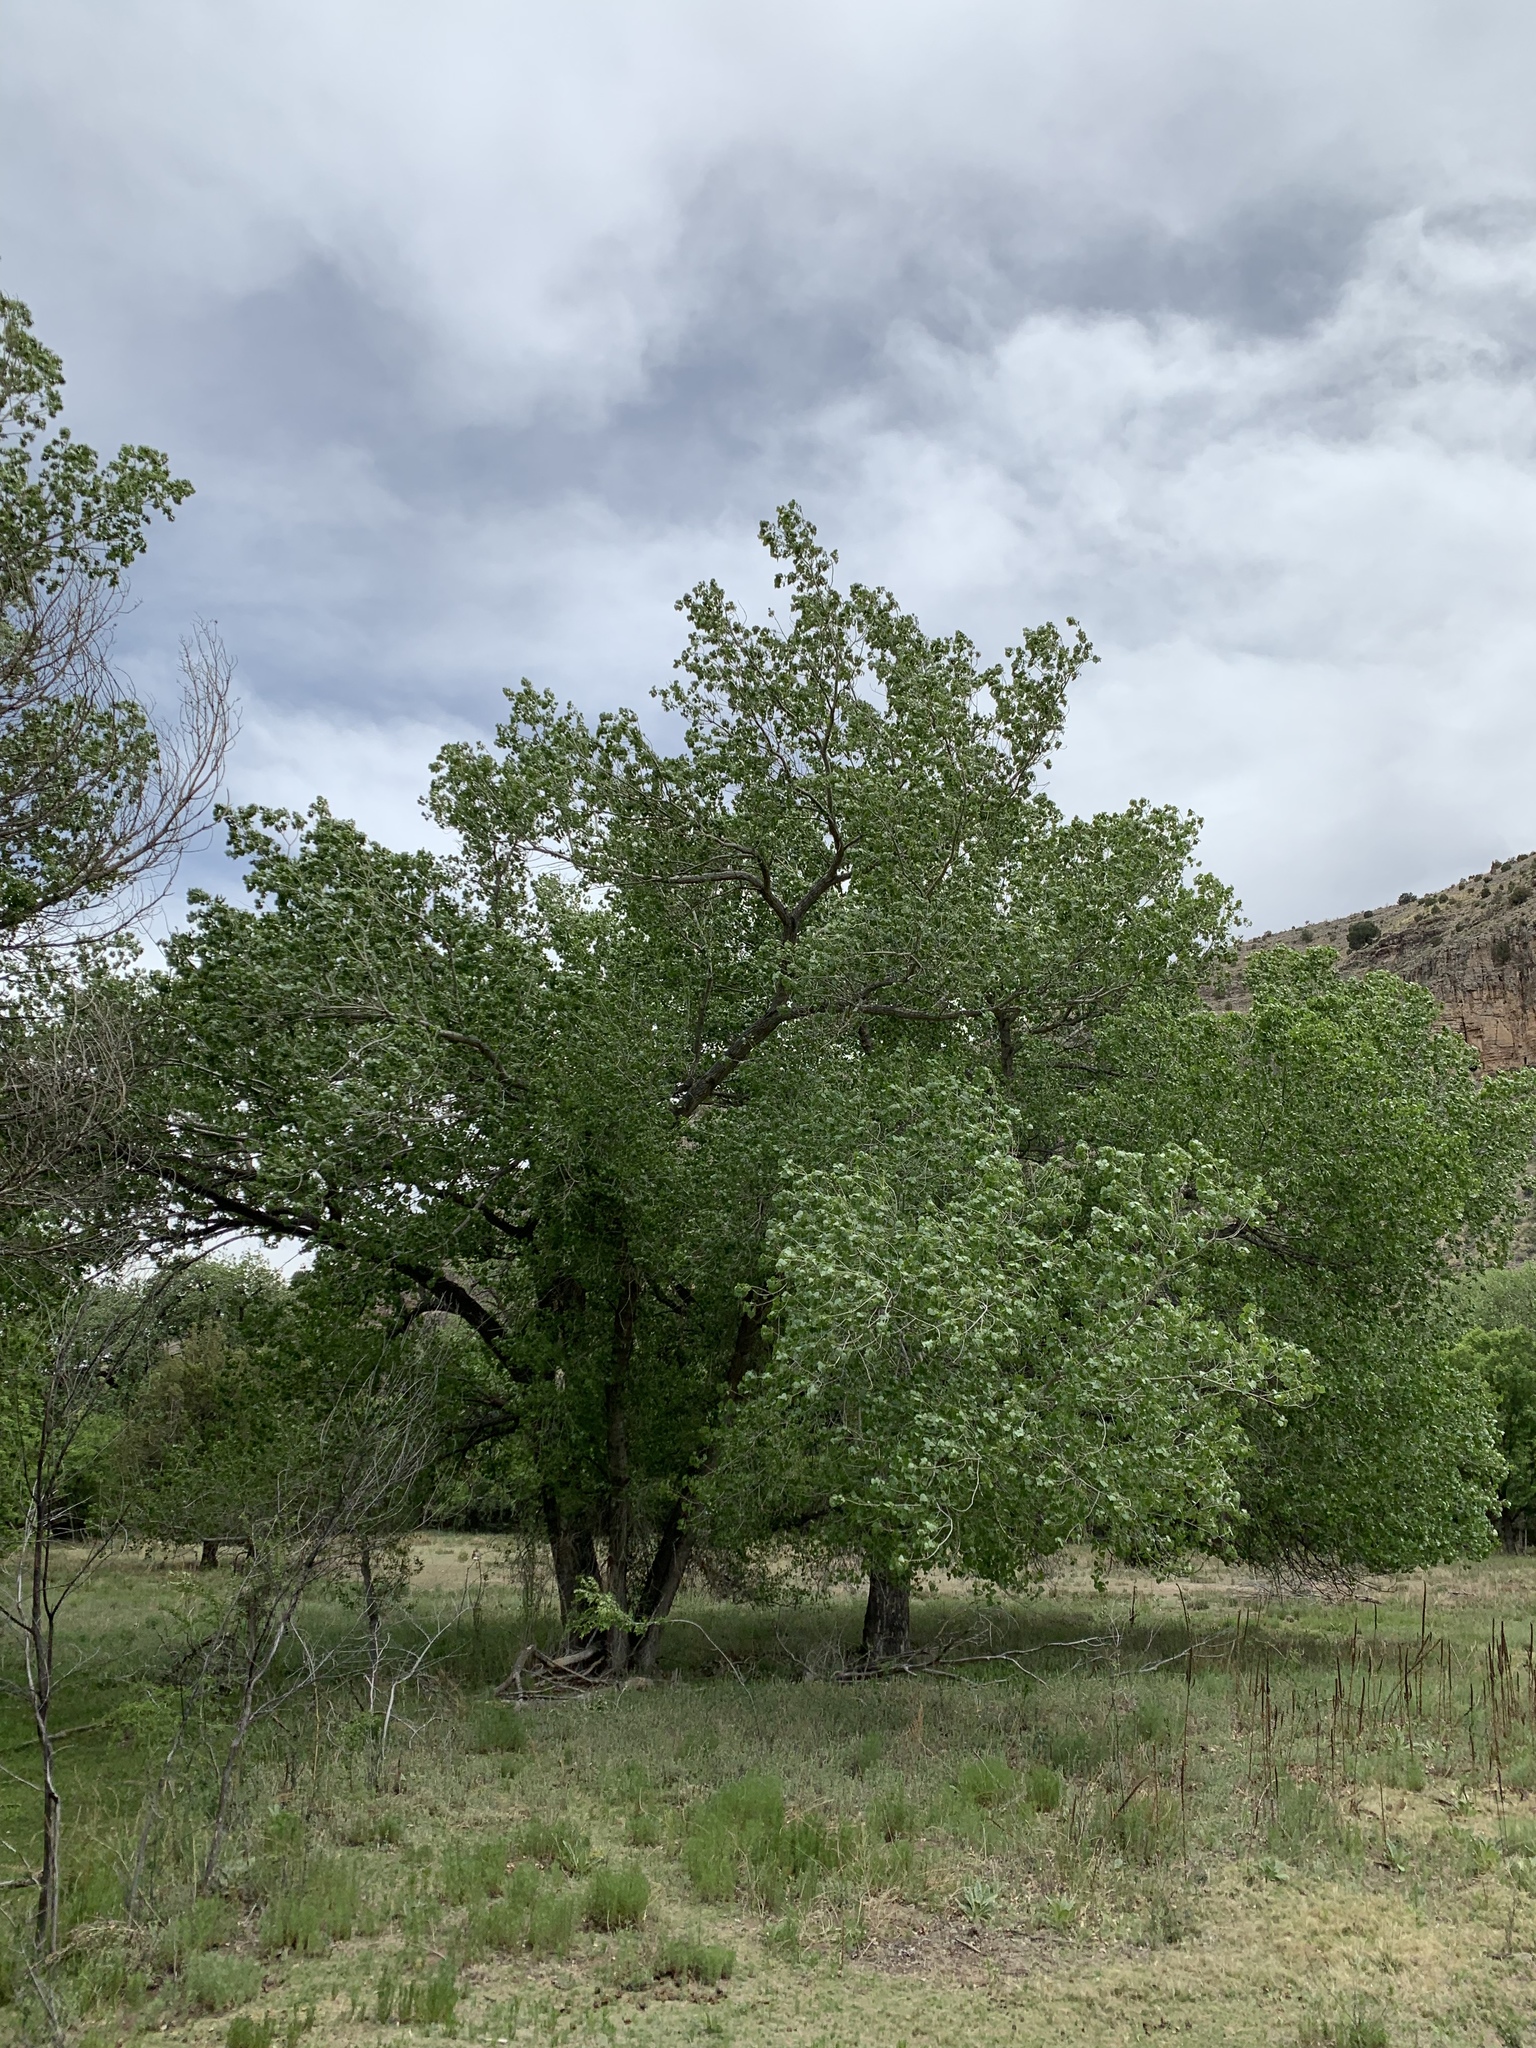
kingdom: Plantae
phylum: Tracheophyta
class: Magnoliopsida
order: Malpighiales
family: Salicaceae
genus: Populus
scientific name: Populus deltoides
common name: Eastern cottonwood
